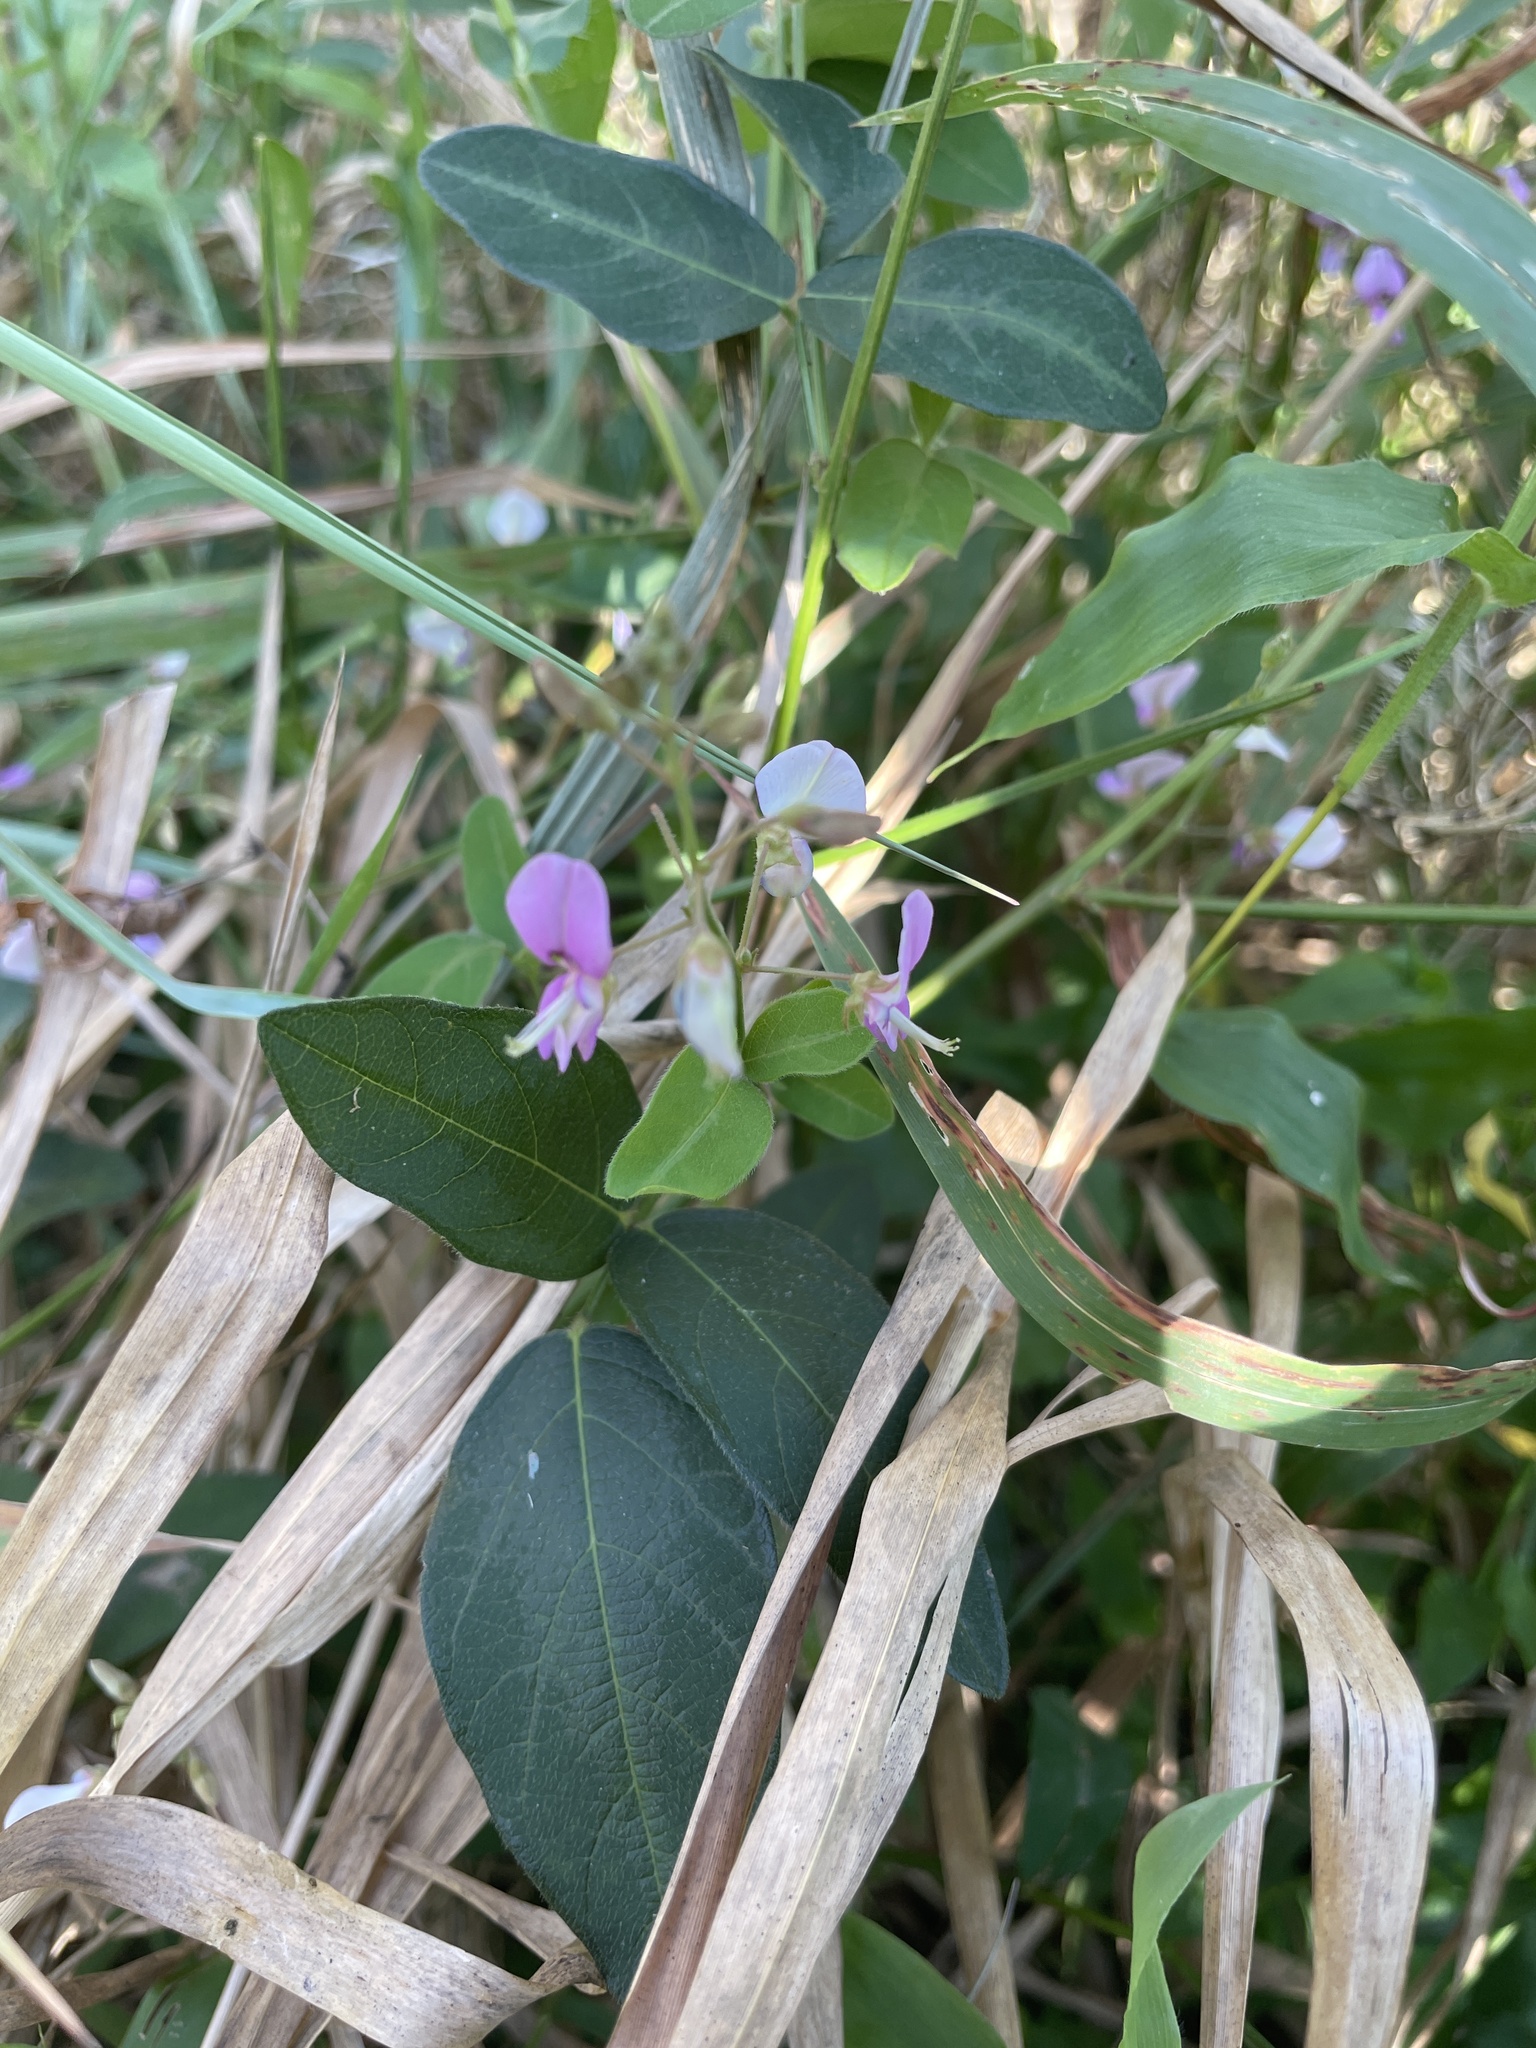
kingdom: Plantae
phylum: Tracheophyta
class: Magnoliopsida
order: Fabales
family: Fabaceae
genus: Desmodium
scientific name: Desmodium paniculatum
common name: Panicled tick-clover
